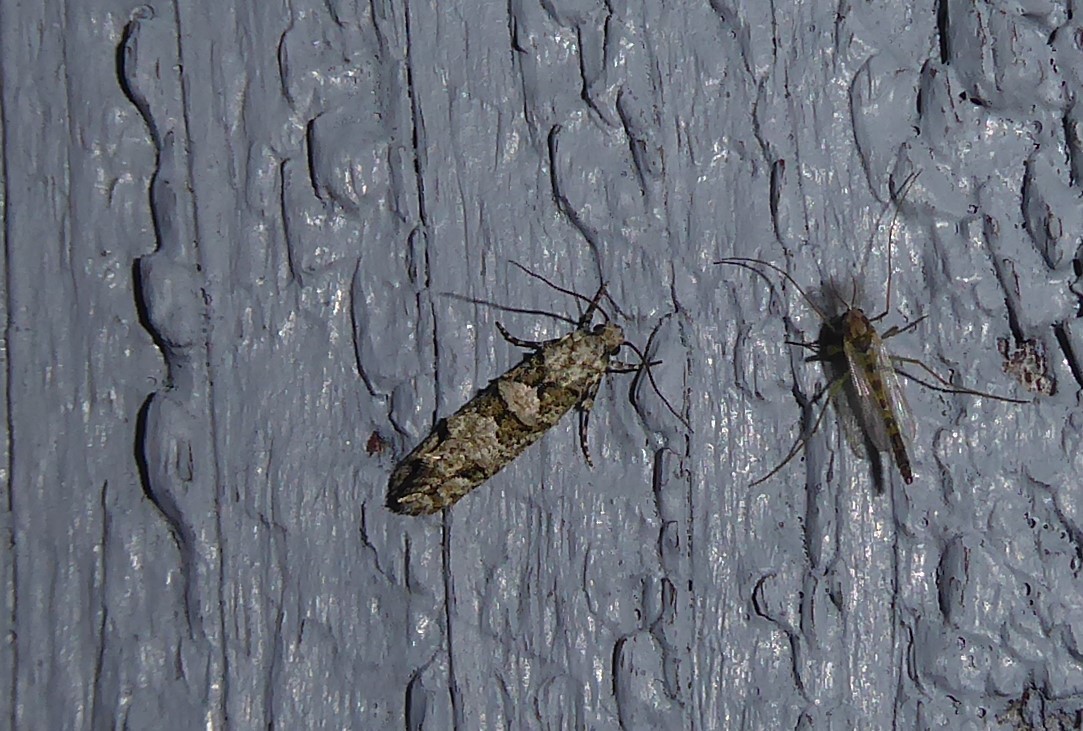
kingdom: Animalia
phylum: Arthropoda
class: Insecta
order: Lepidoptera
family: Tineidae
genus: Lysiphragma
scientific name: Lysiphragma howesii
